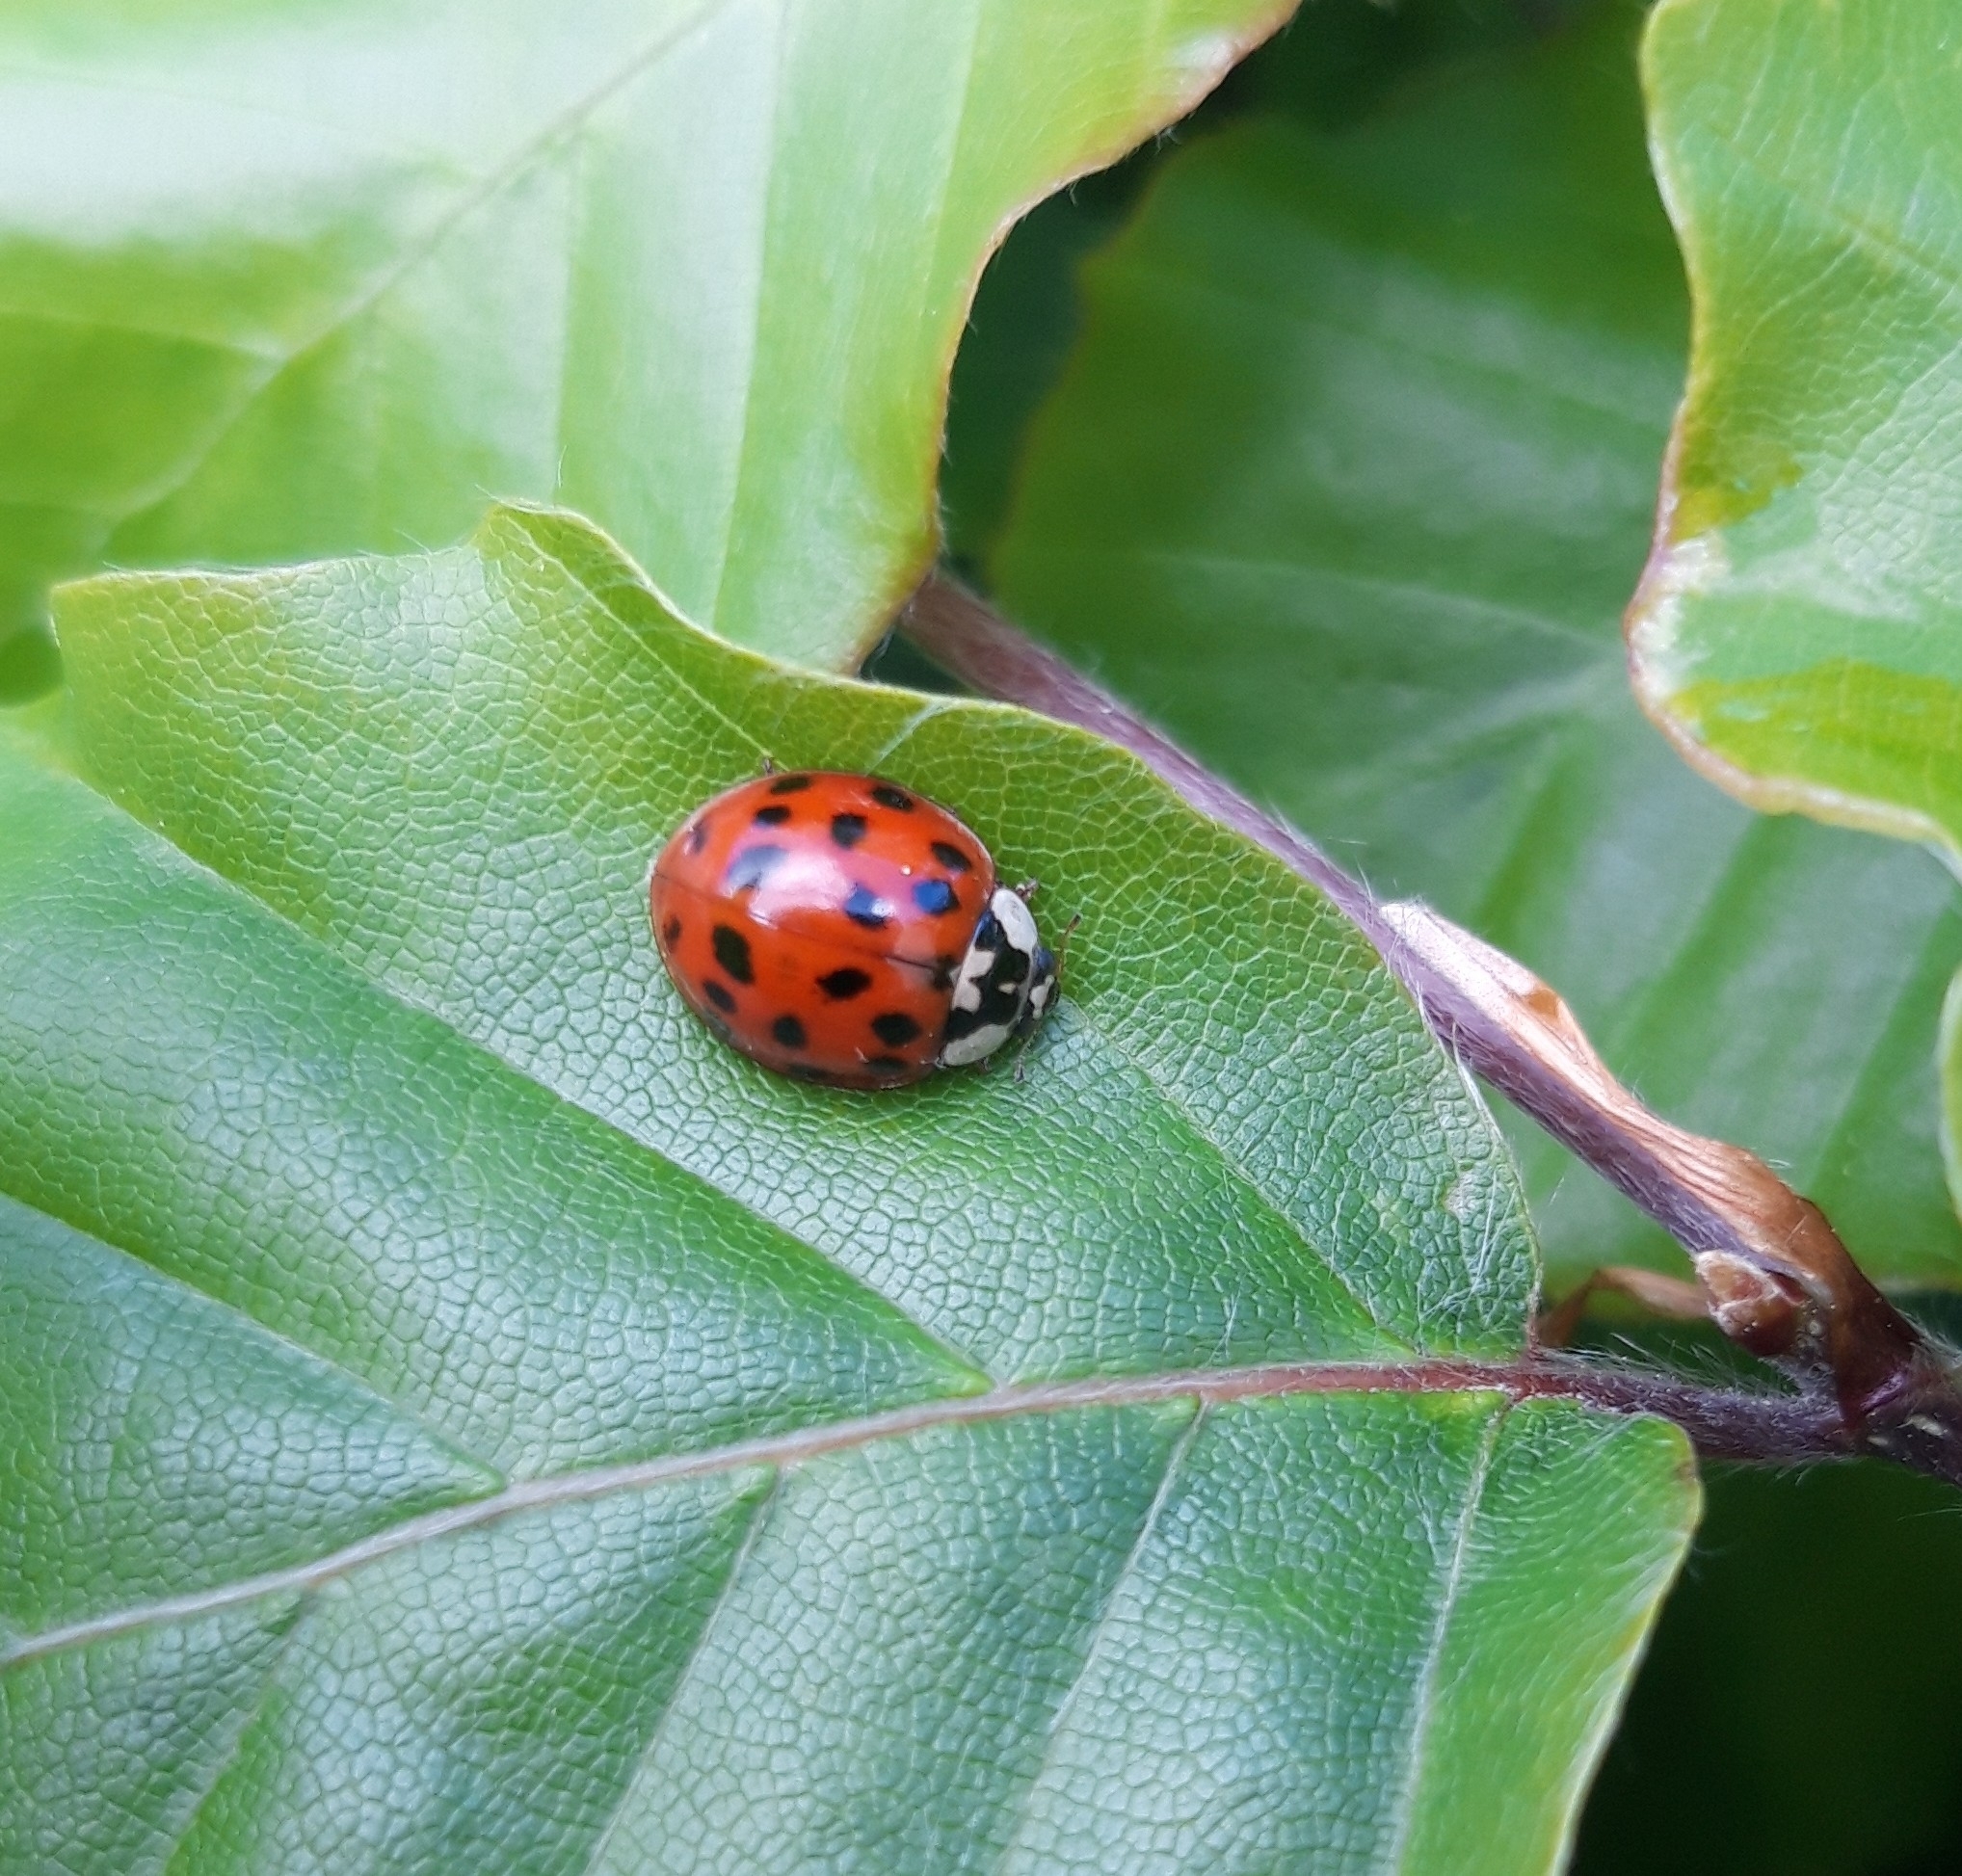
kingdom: Animalia
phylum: Arthropoda
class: Insecta
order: Coleoptera
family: Coccinellidae
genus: Harmonia
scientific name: Harmonia axyridis
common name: Harlequin ladybird
